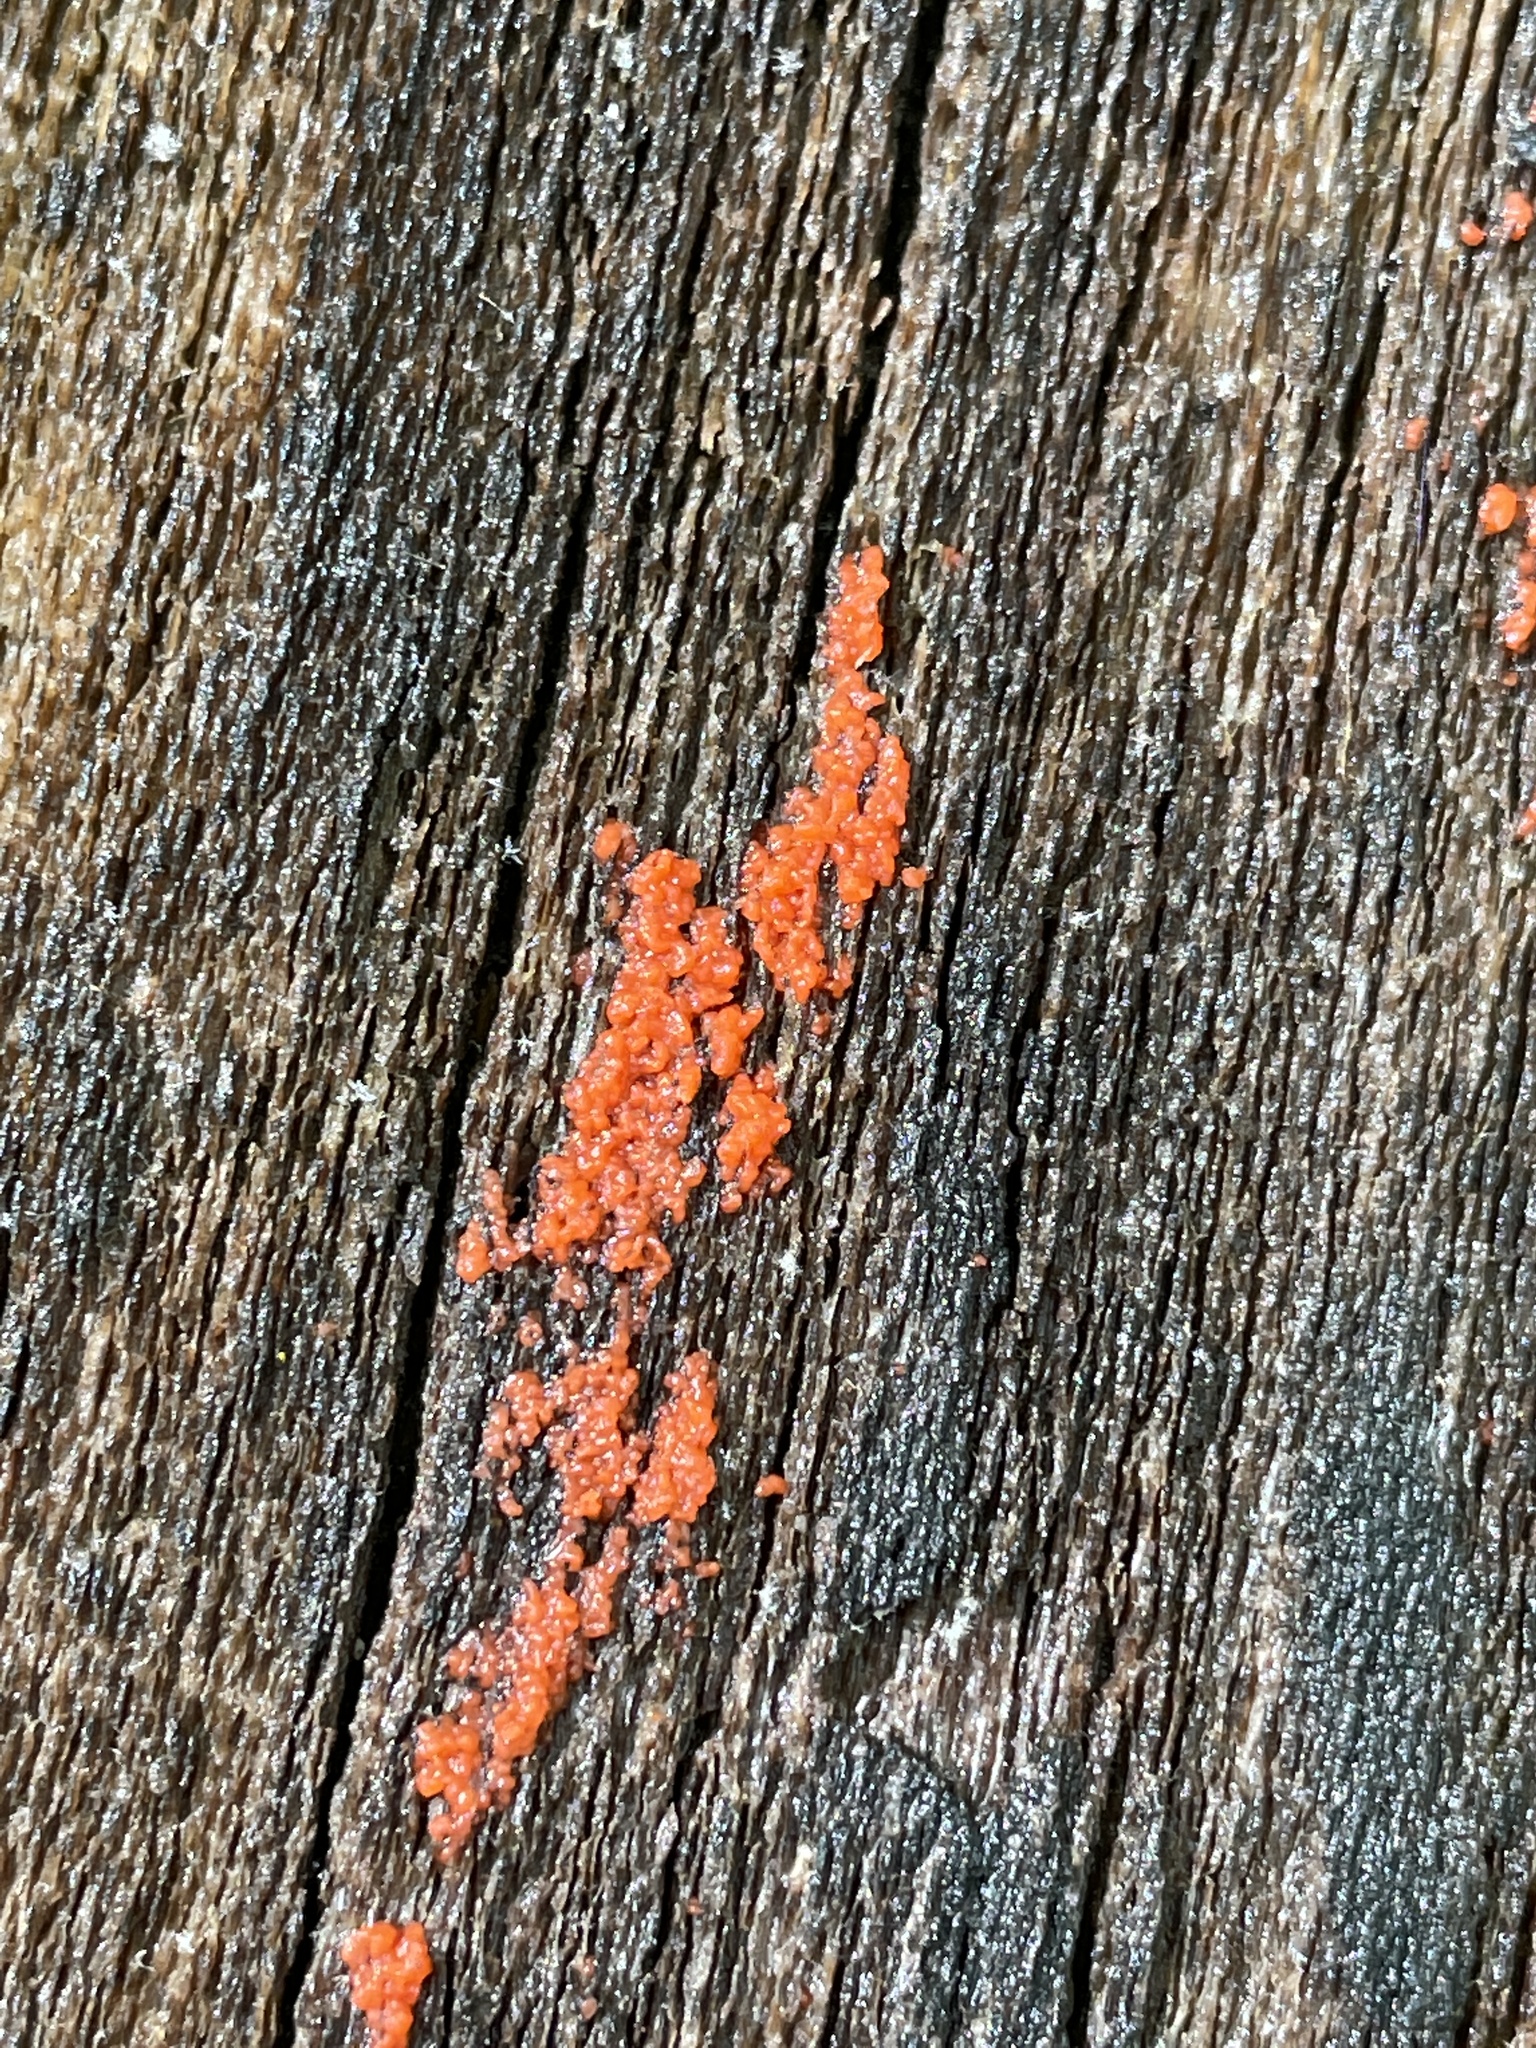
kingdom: Fungi
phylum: Basidiomycota
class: Agaricomycetes
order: Cantharellales
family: Tulasnellaceae
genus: Tulasnella
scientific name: Tulasnella aurantiaca
